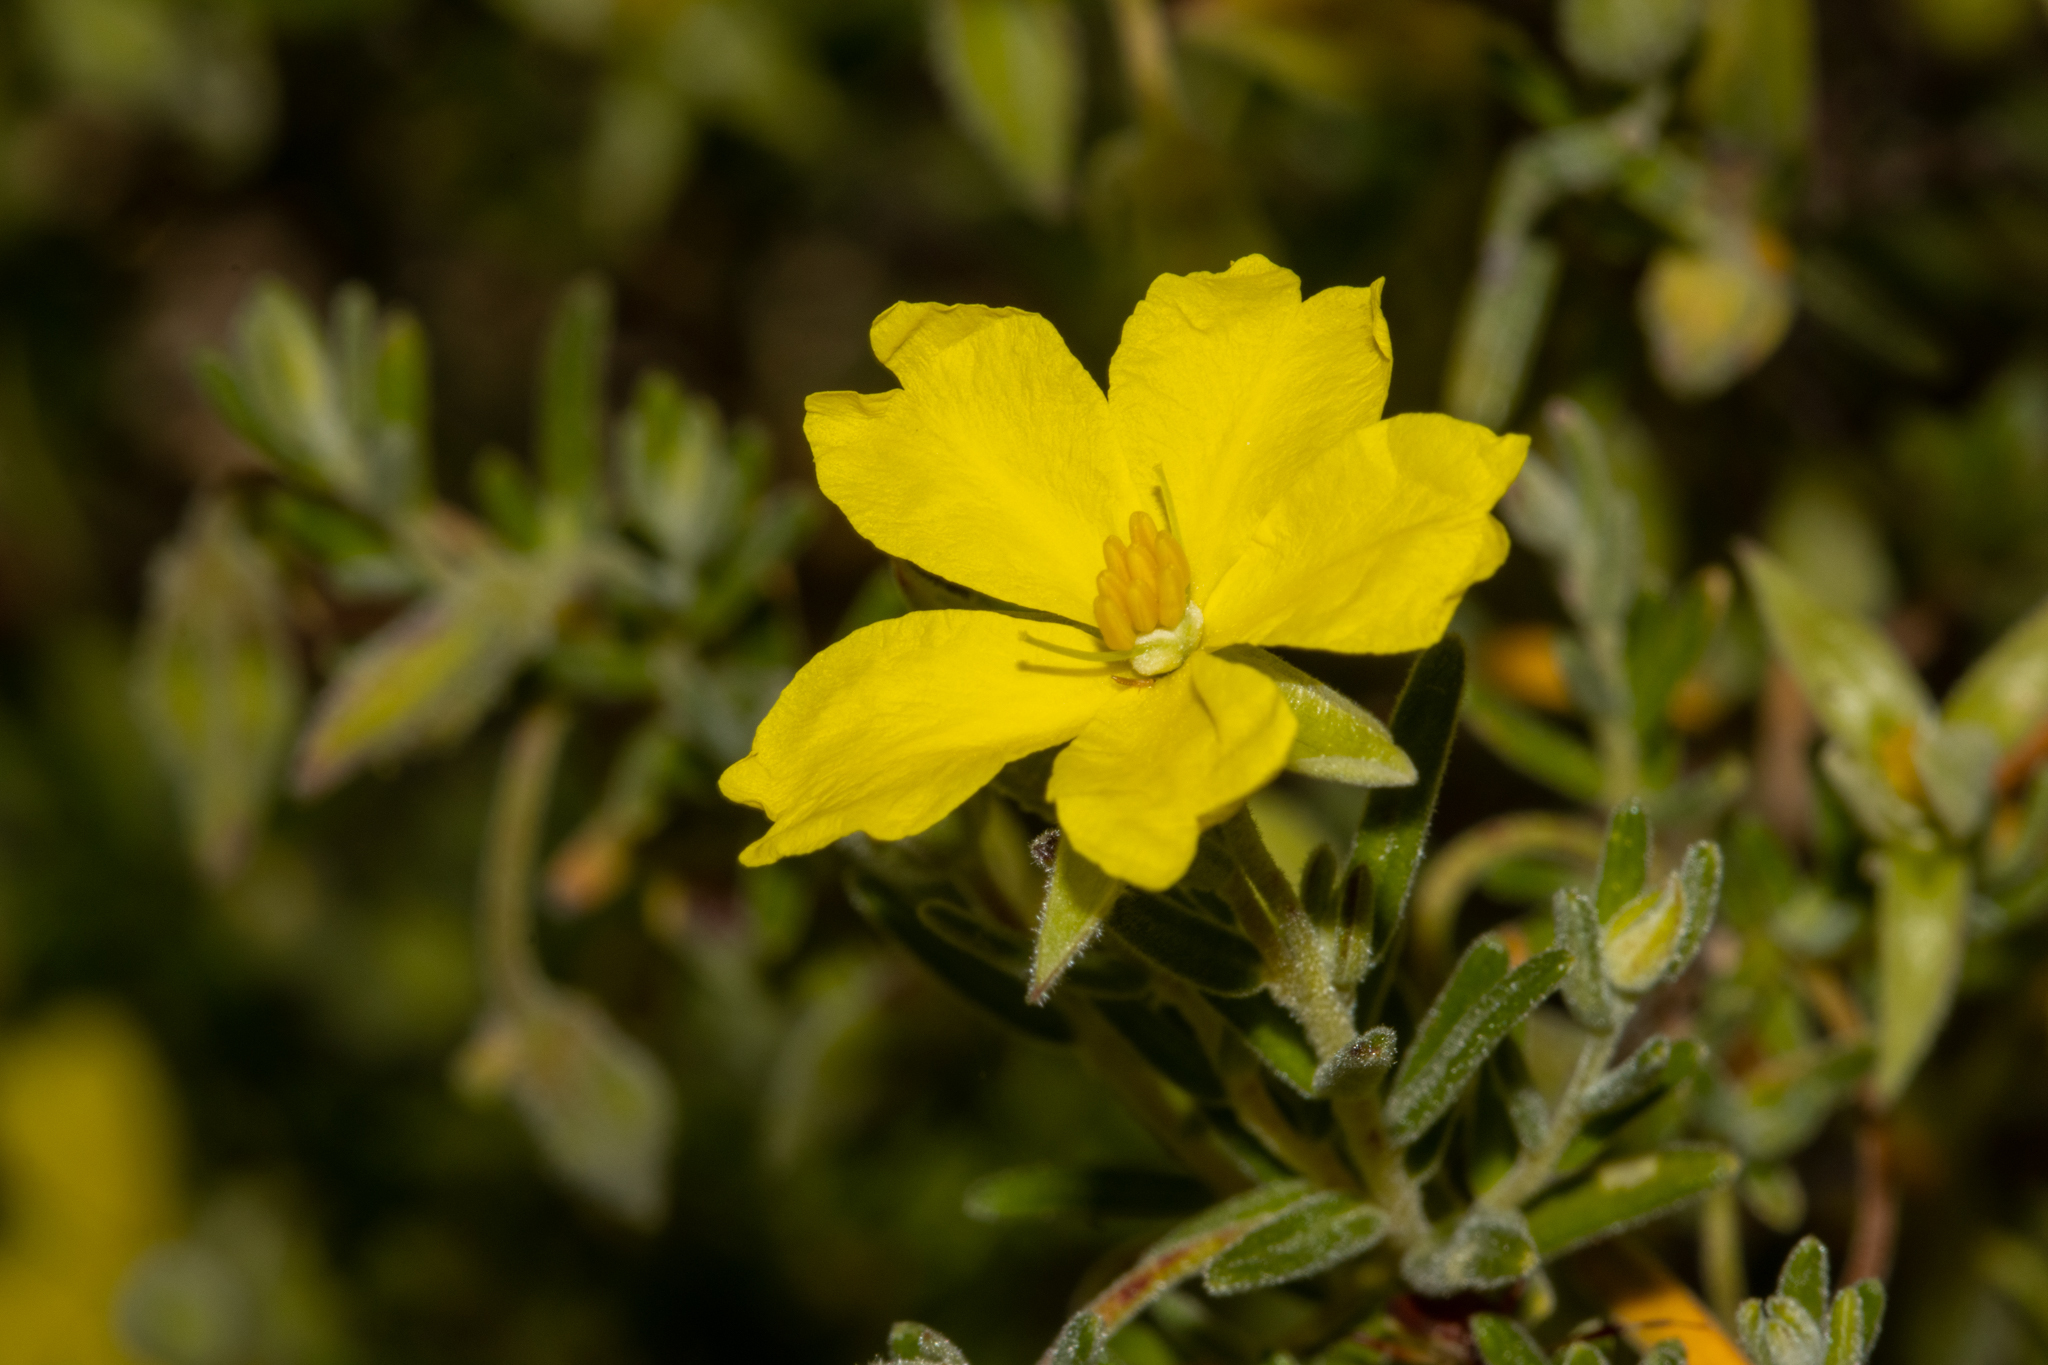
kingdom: Plantae
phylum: Tracheophyta
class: Magnoliopsida
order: Dilleniales
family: Dilleniaceae
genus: Hibbertia
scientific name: Hibbertia australis
